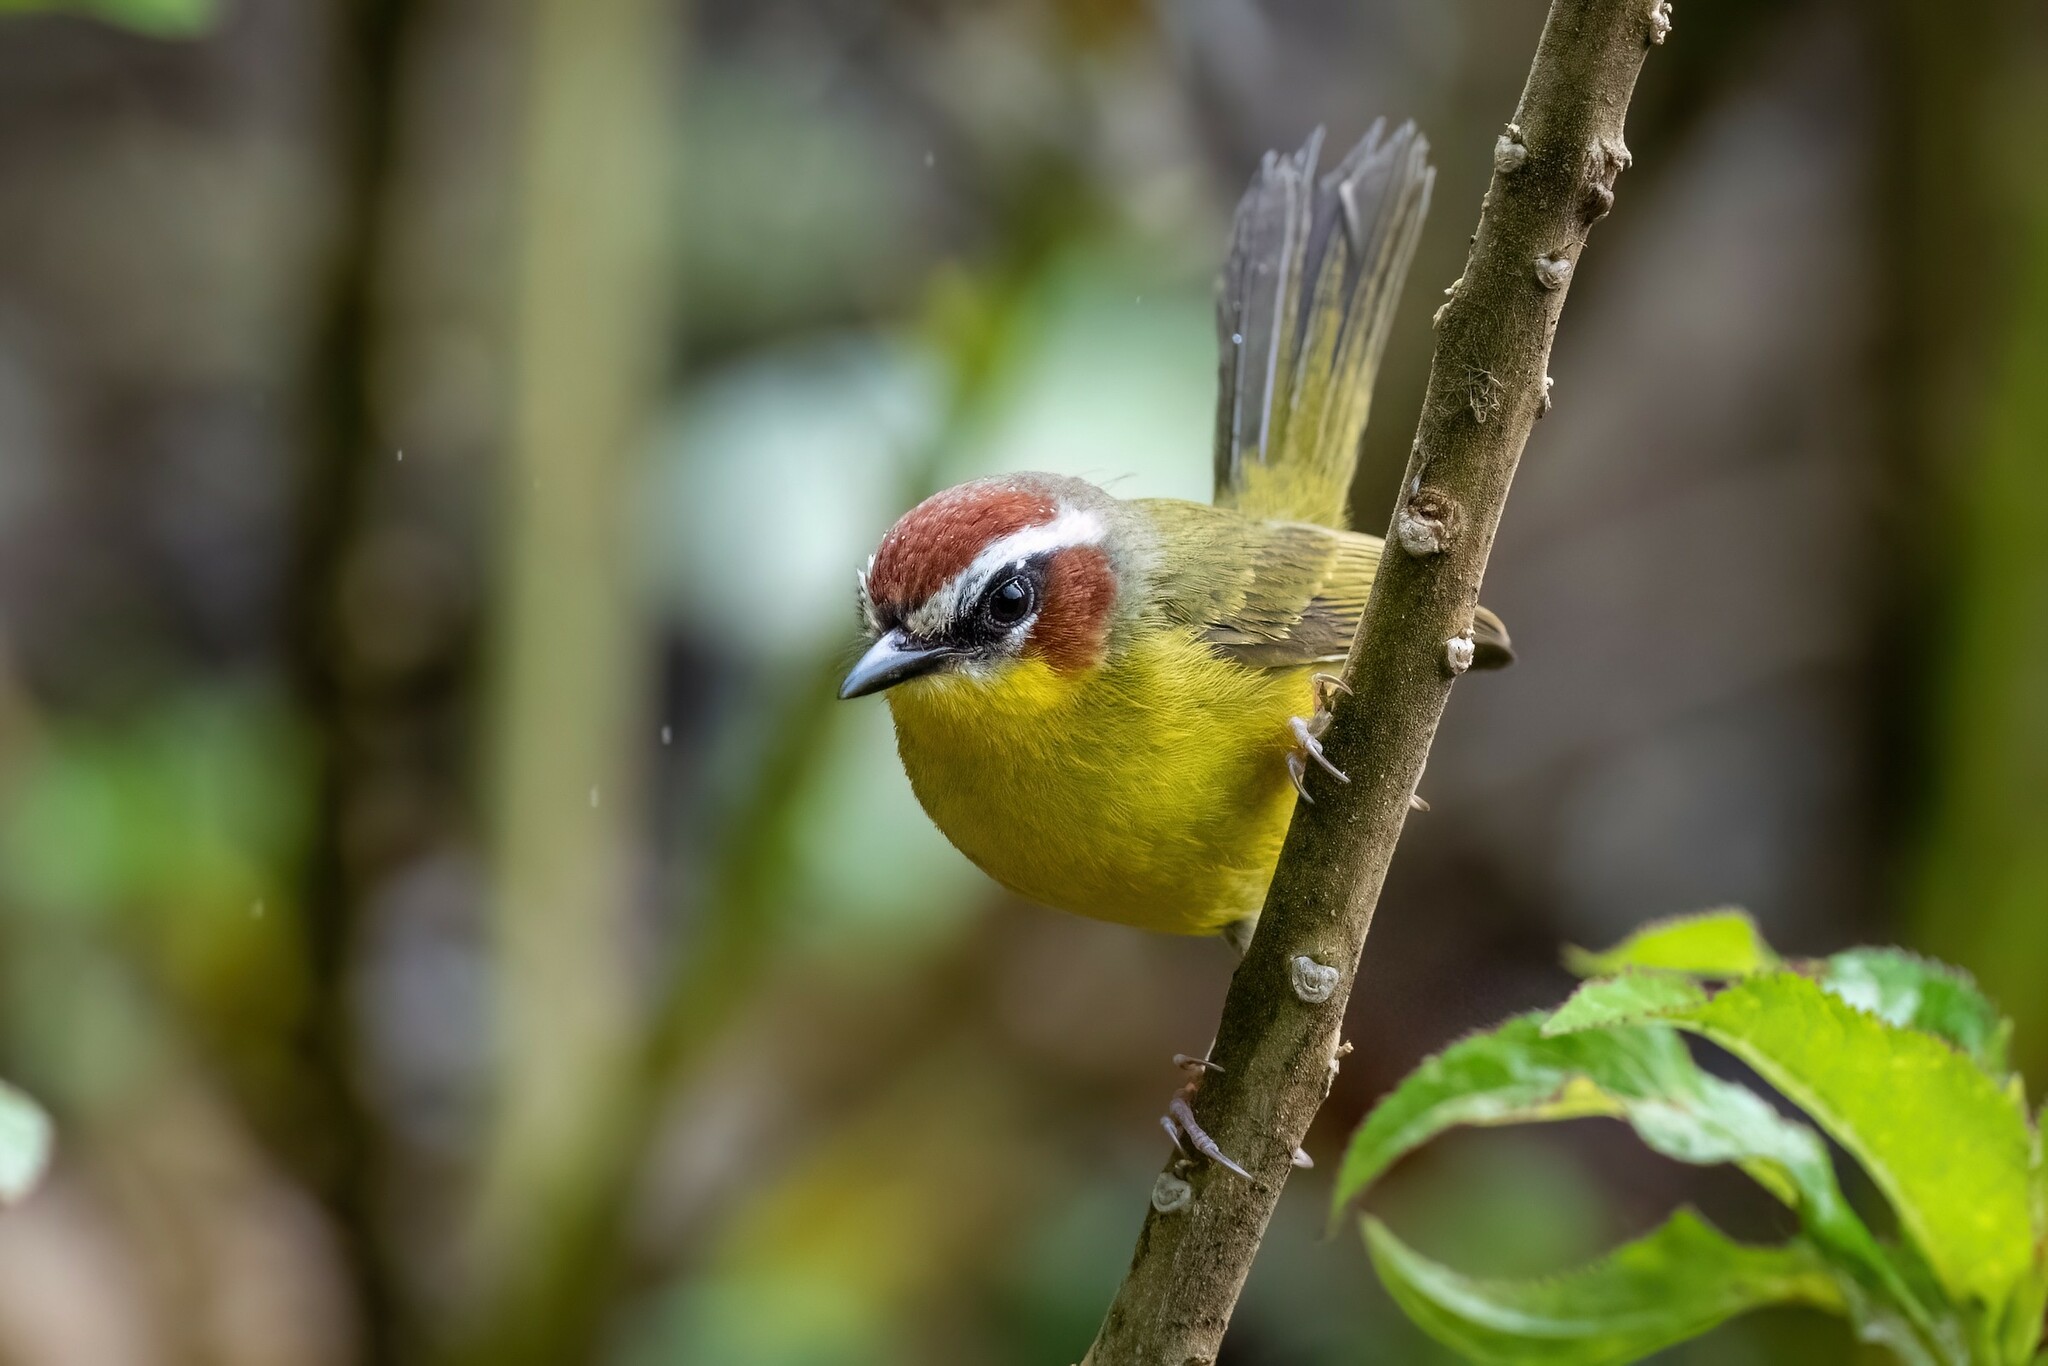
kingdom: Animalia
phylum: Chordata
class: Aves
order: Passeriformes
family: Parulidae
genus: Basileuterus
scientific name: Basileuterus rufifrons
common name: Rufous-capped warbler
